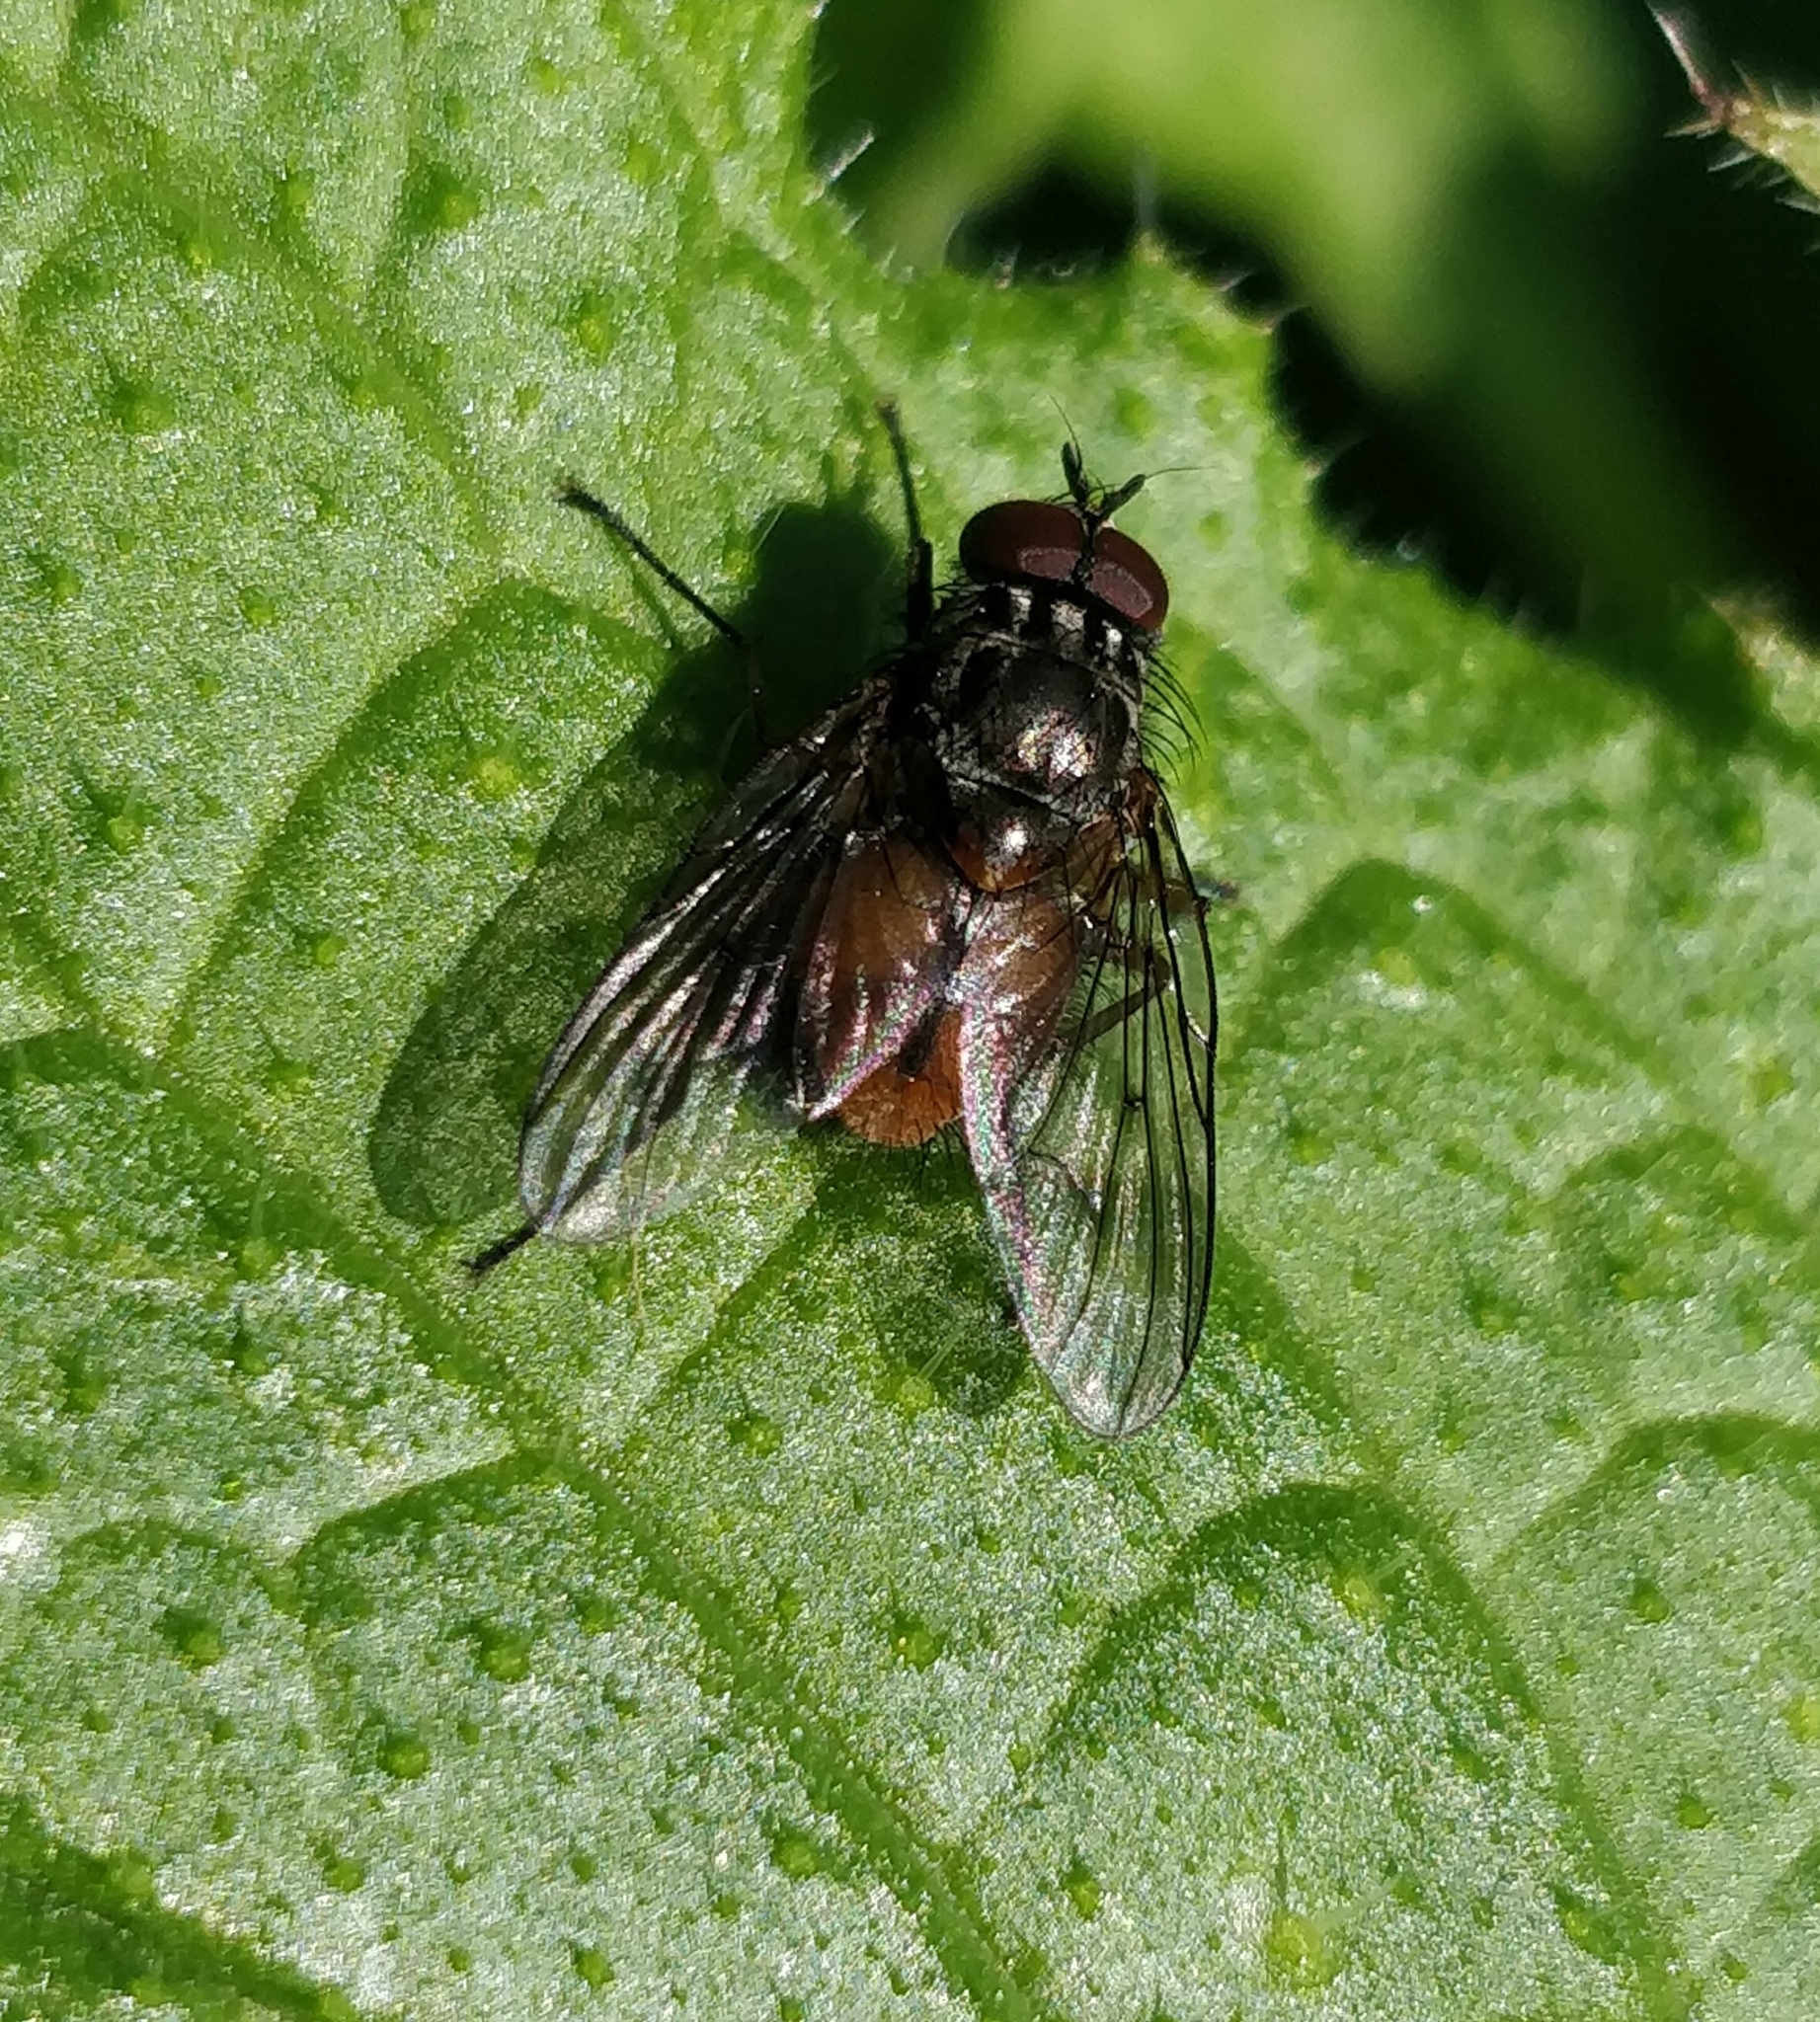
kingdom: Animalia
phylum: Arthropoda
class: Insecta
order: Diptera
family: Muscidae
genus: Phaonia
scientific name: Phaonia subventa
